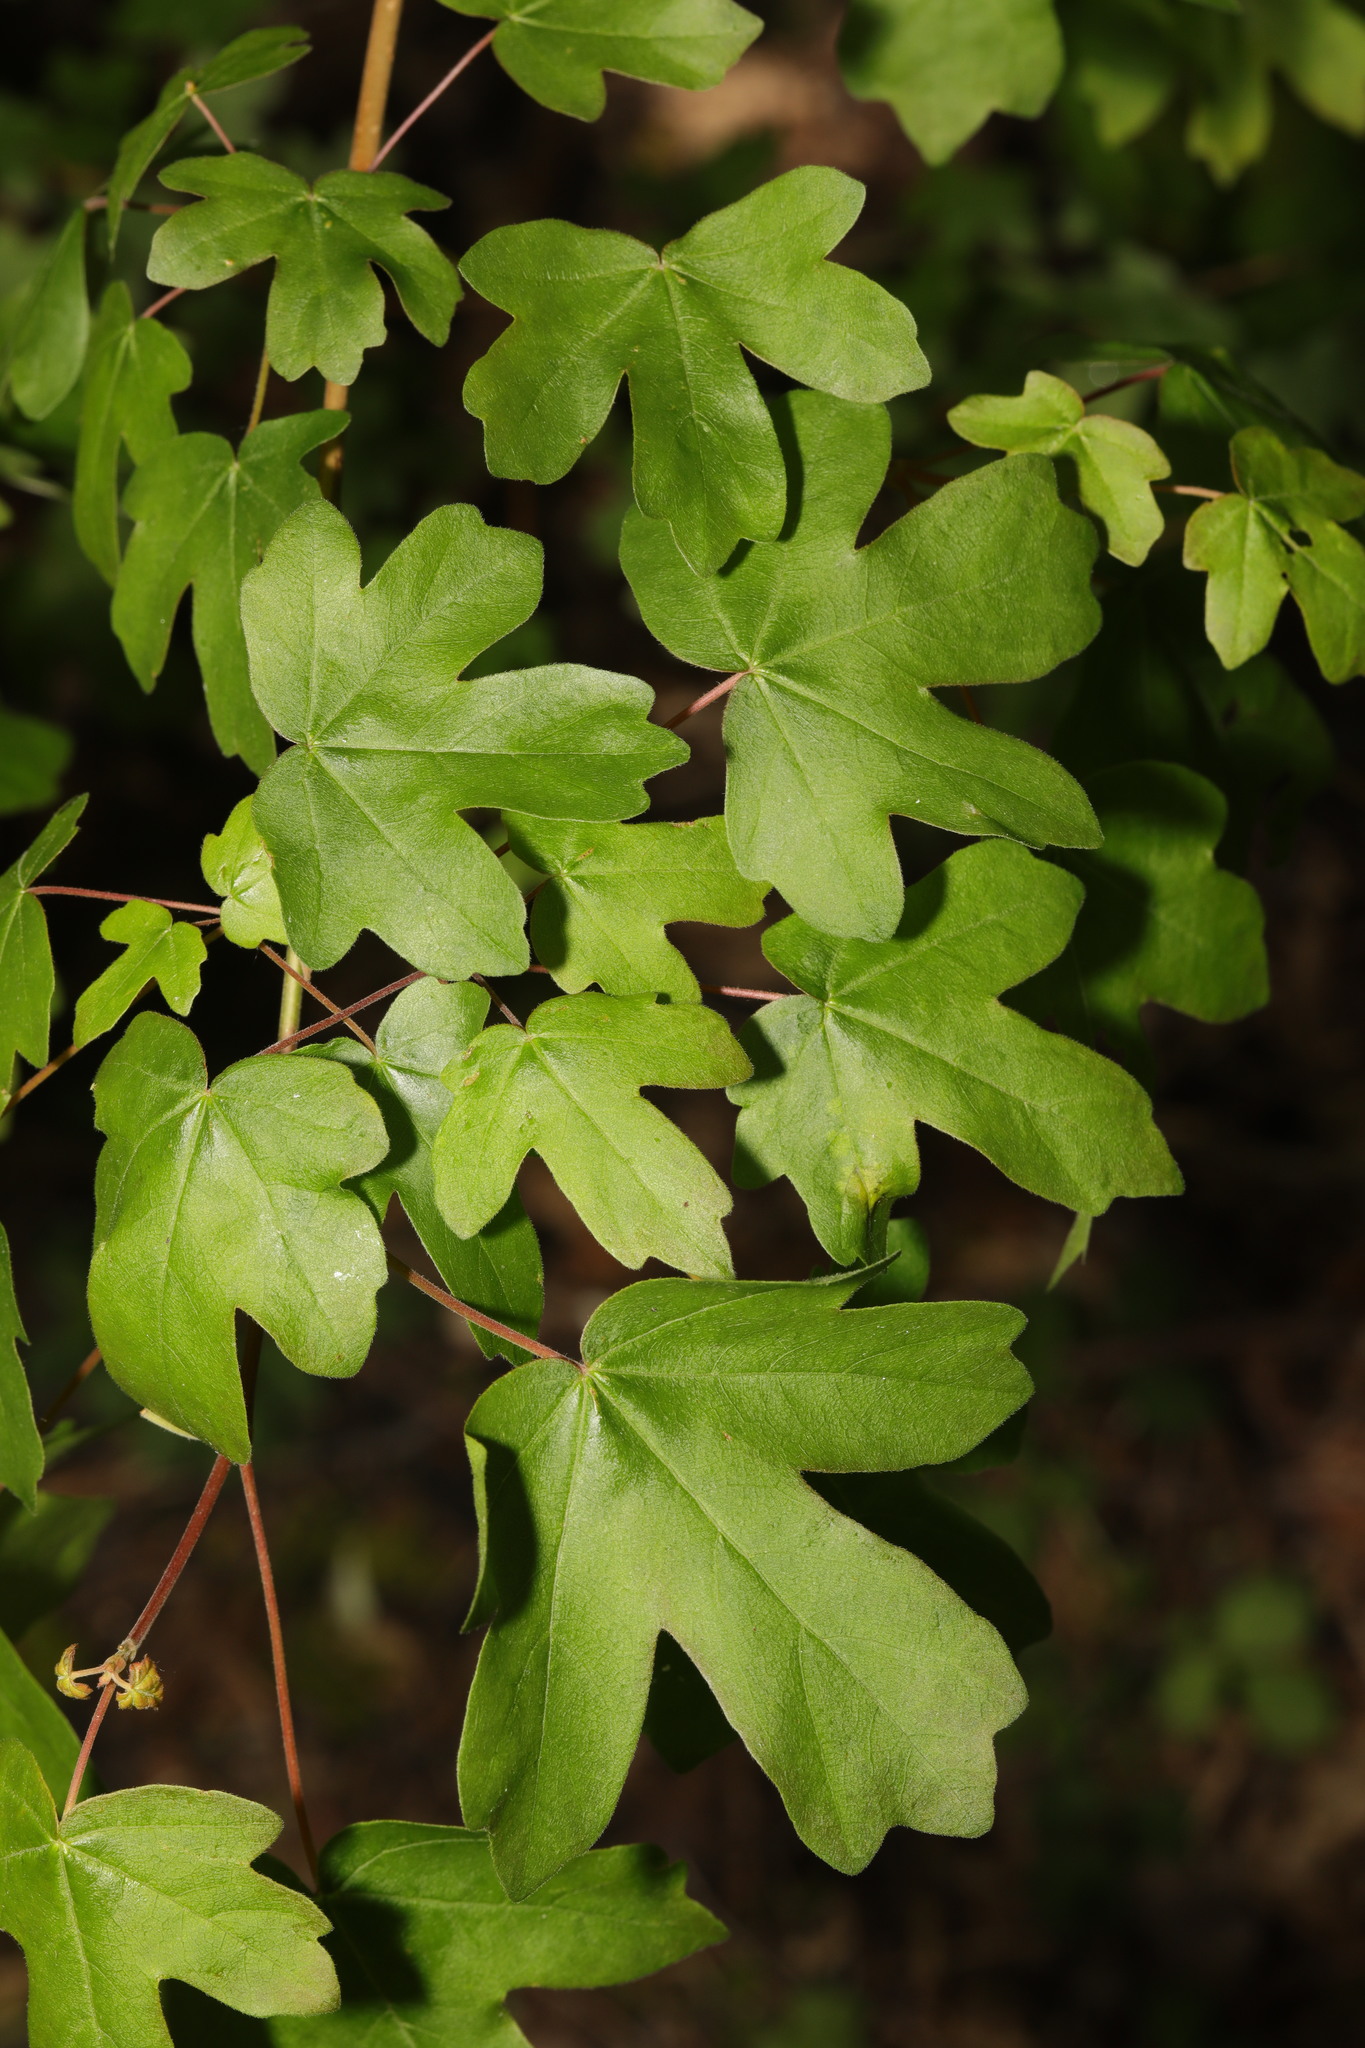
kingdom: Plantae
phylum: Tracheophyta
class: Magnoliopsida
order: Sapindales
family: Sapindaceae
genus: Acer
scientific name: Acer campestre
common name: Field maple
